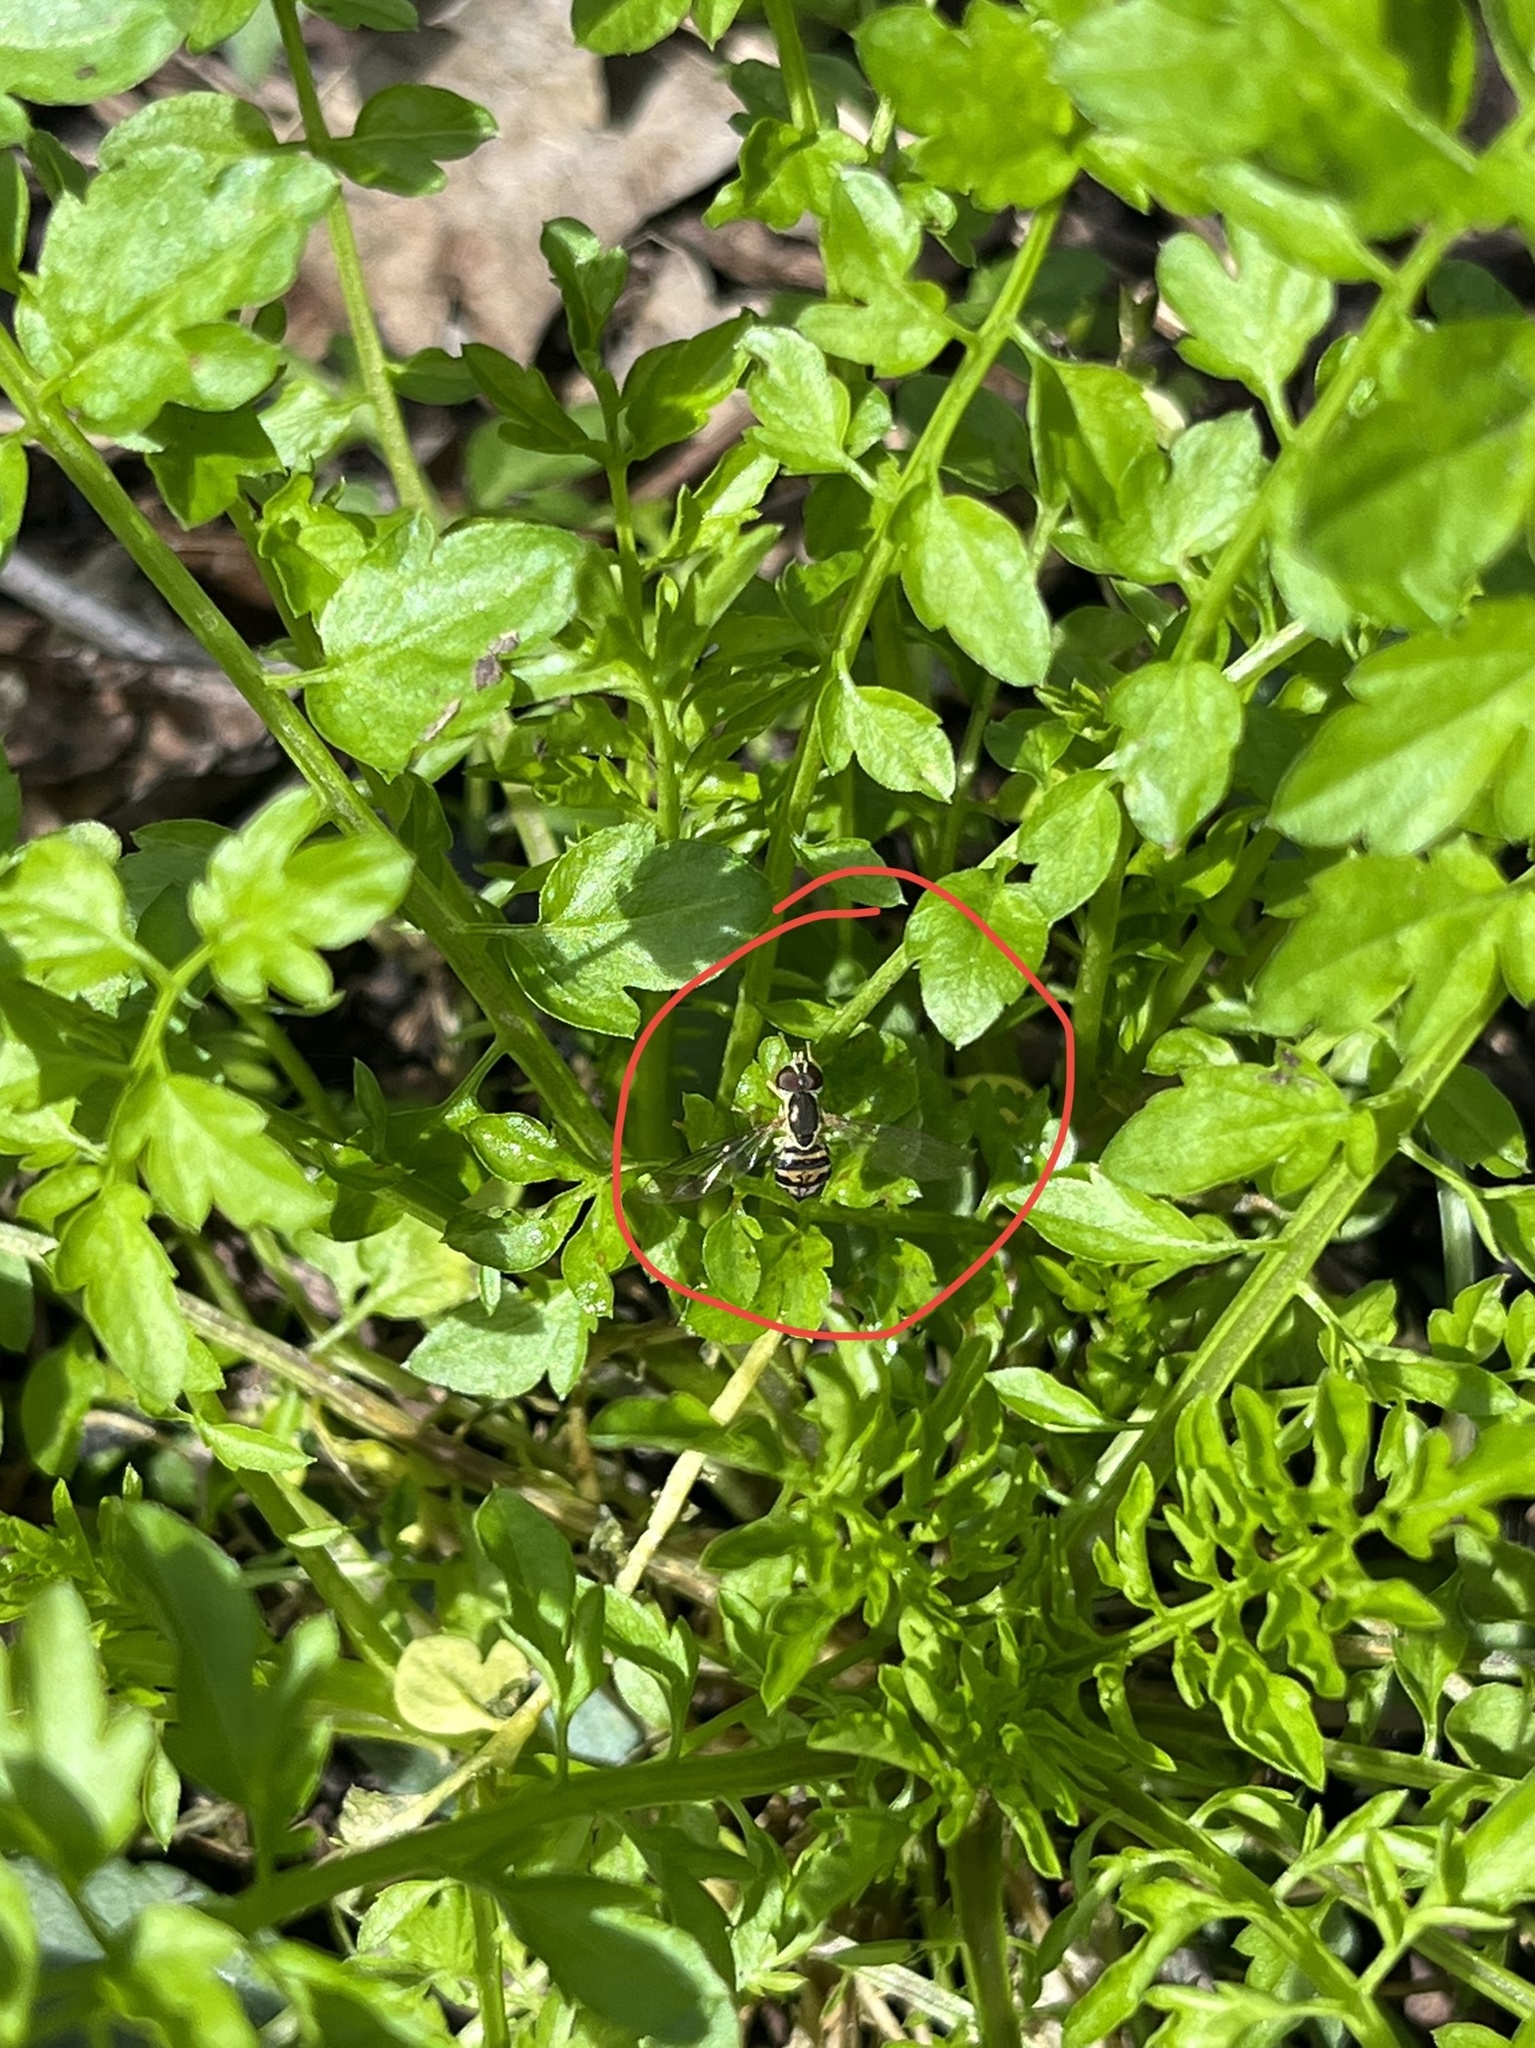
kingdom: Animalia
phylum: Arthropoda
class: Insecta
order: Diptera
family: Syrphidae
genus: Toxomerus
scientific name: Toxomerus geminatus
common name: Eastern calligrapher
